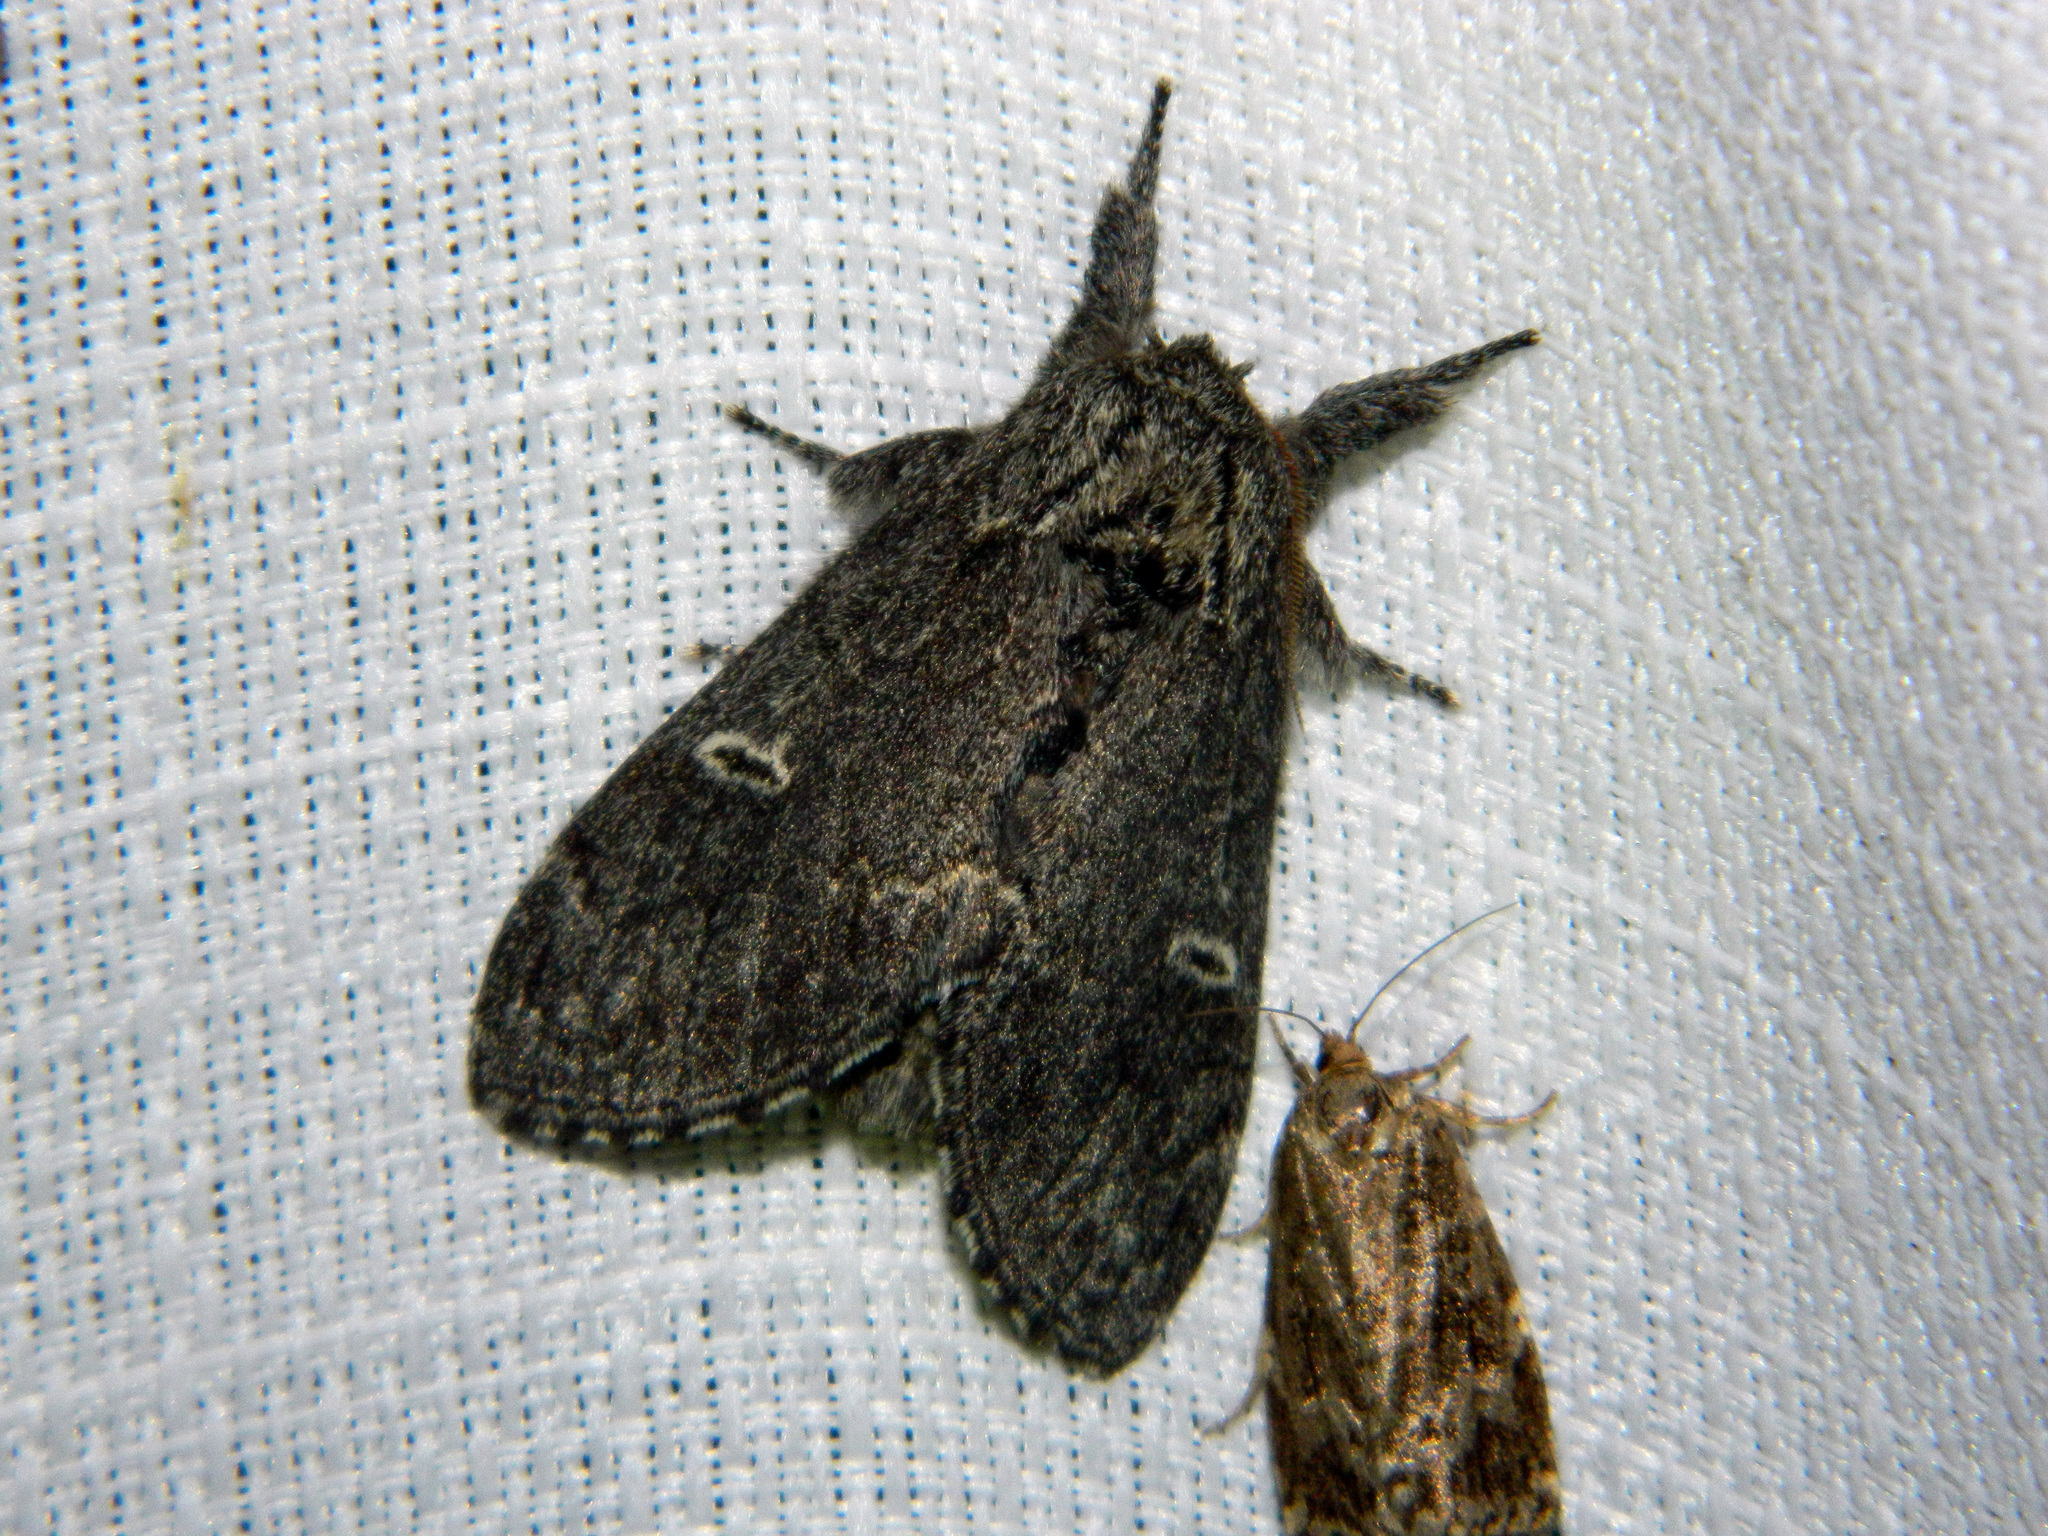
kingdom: Animalia
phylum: Arthropoda
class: Insecta
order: Lepidoptera
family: Notodontidae
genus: Notodonta
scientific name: Notodonta torva
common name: Large dark prominent
